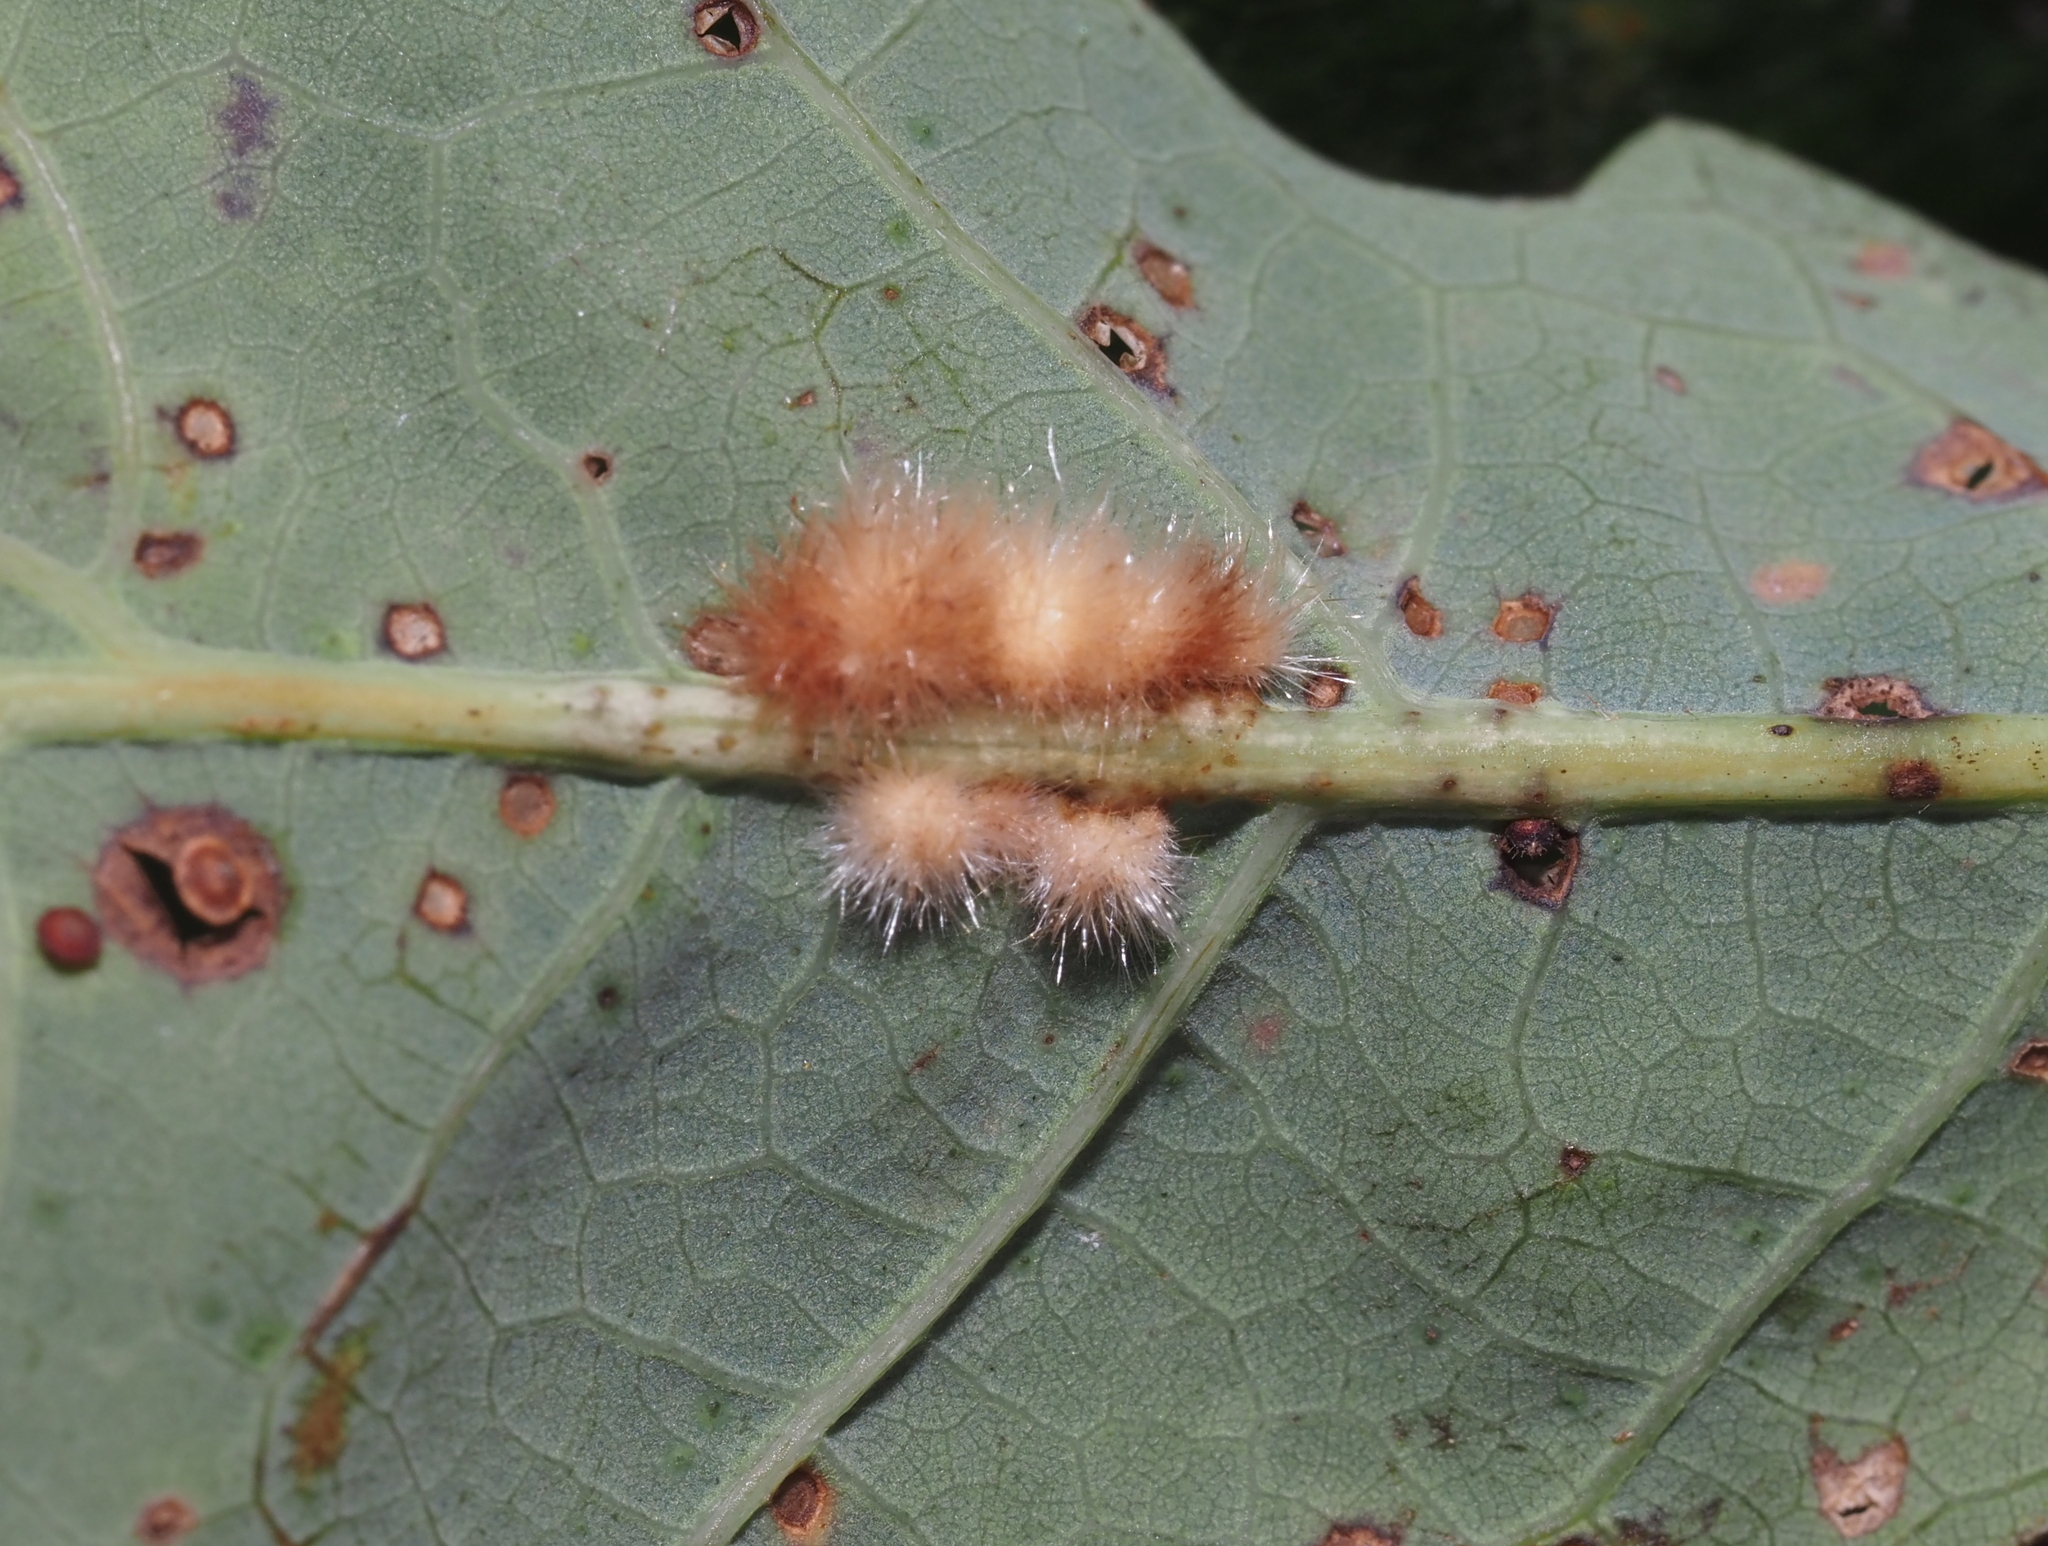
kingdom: Animalia
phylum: Arthropoda
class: Insecta
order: Hymenoptera
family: Cynipidae
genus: Andricus
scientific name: Andricus
